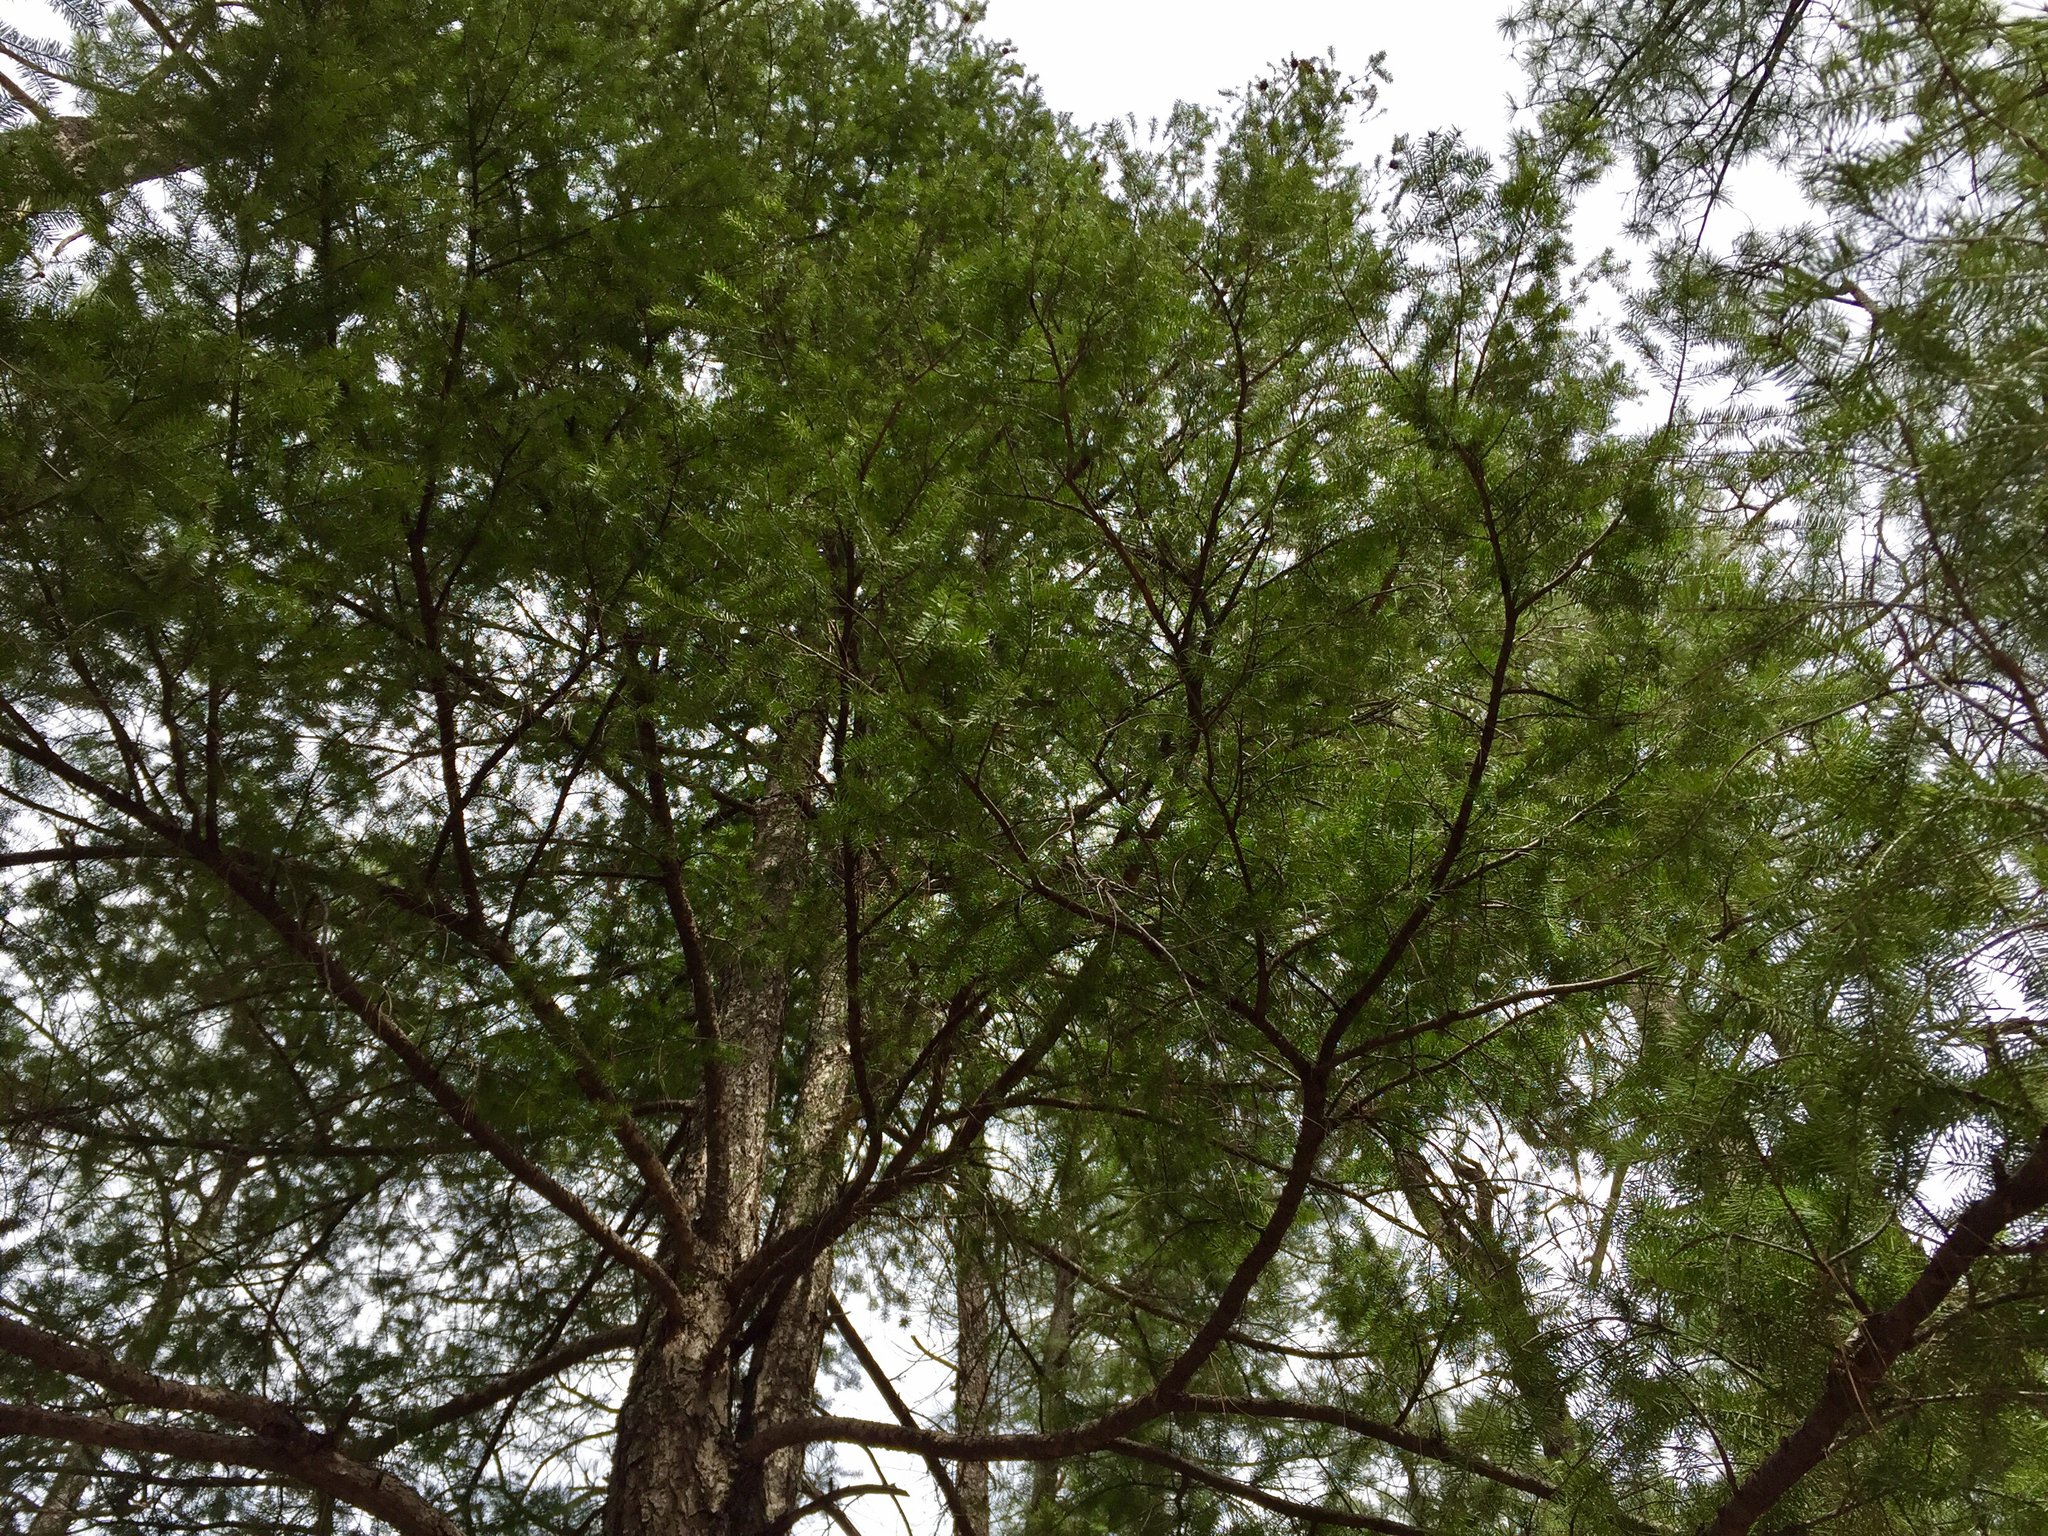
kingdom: Plantae
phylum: Tracheophyta
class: Pinopsida
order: Pinales
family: Pinaceae
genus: Pseudotsuga
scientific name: Pseudotsuga menziesii
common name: Douglas fir
